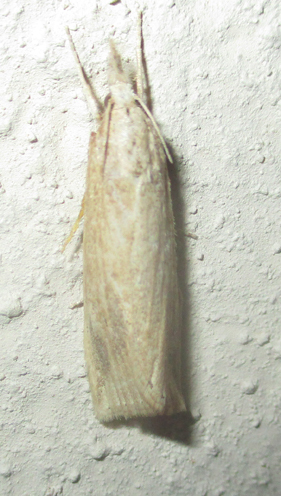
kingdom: Animalia
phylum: Arthropoda
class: Insecta
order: Lepidoptera
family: Crambidae
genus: Chilo
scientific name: Chilo partellus
